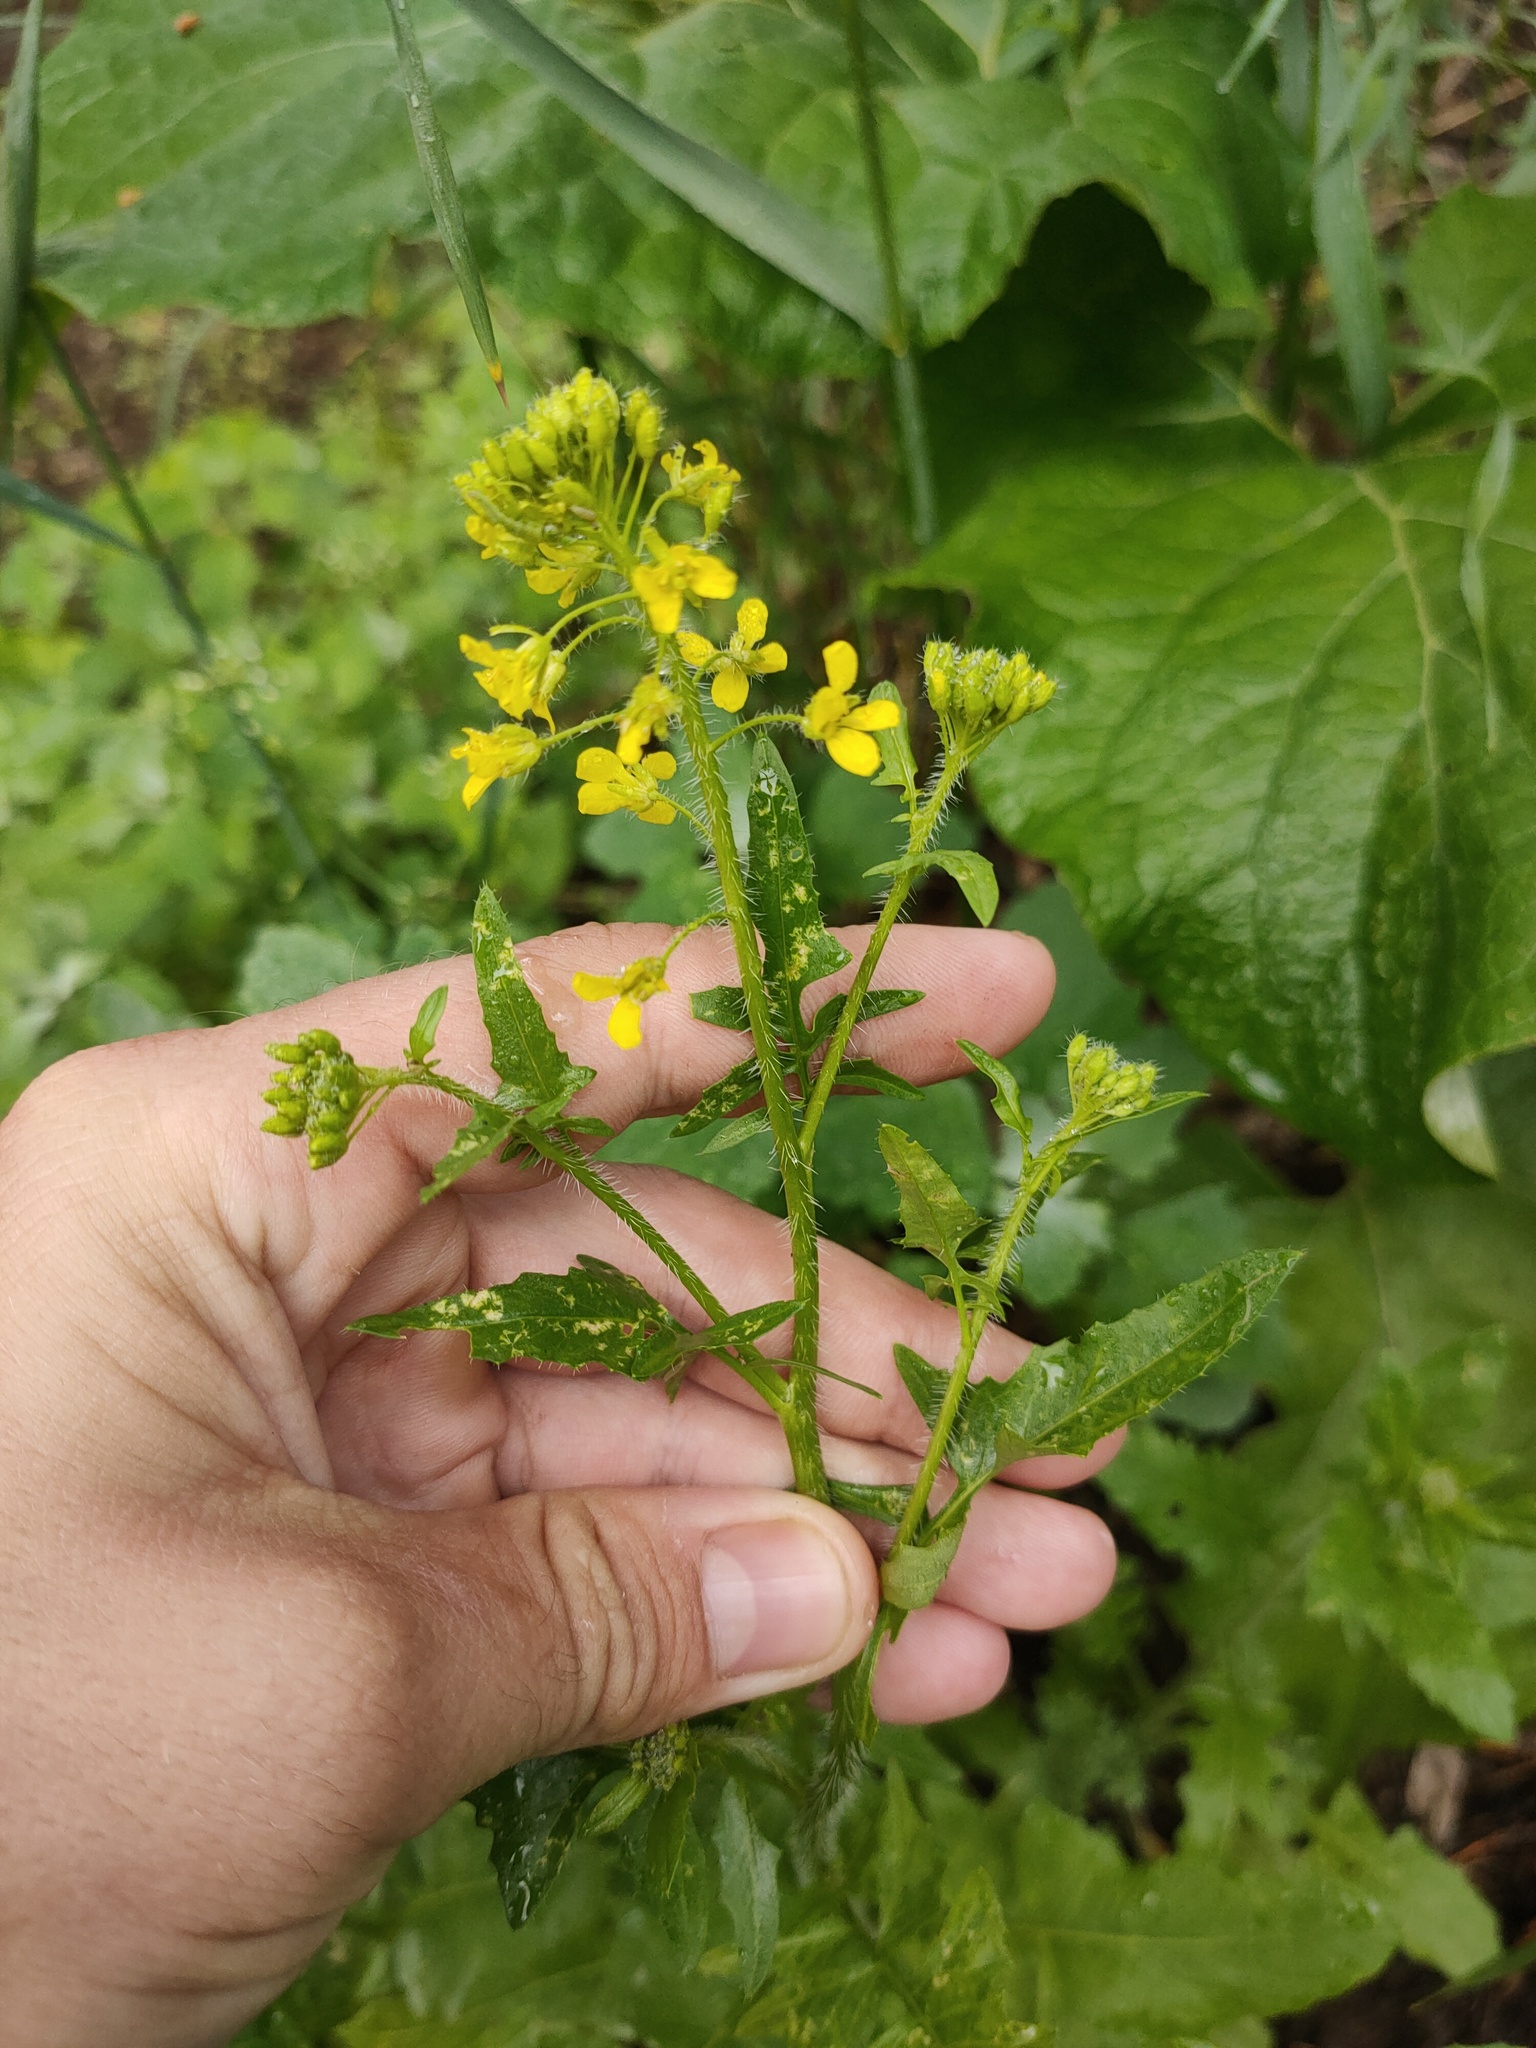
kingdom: Plantae
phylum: Tracheophyta
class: Magnoliopsida
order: Brassicales
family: Brassicaceae
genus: Sisymbrium
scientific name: Sisymbrium loeselii
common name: False london-rocket
